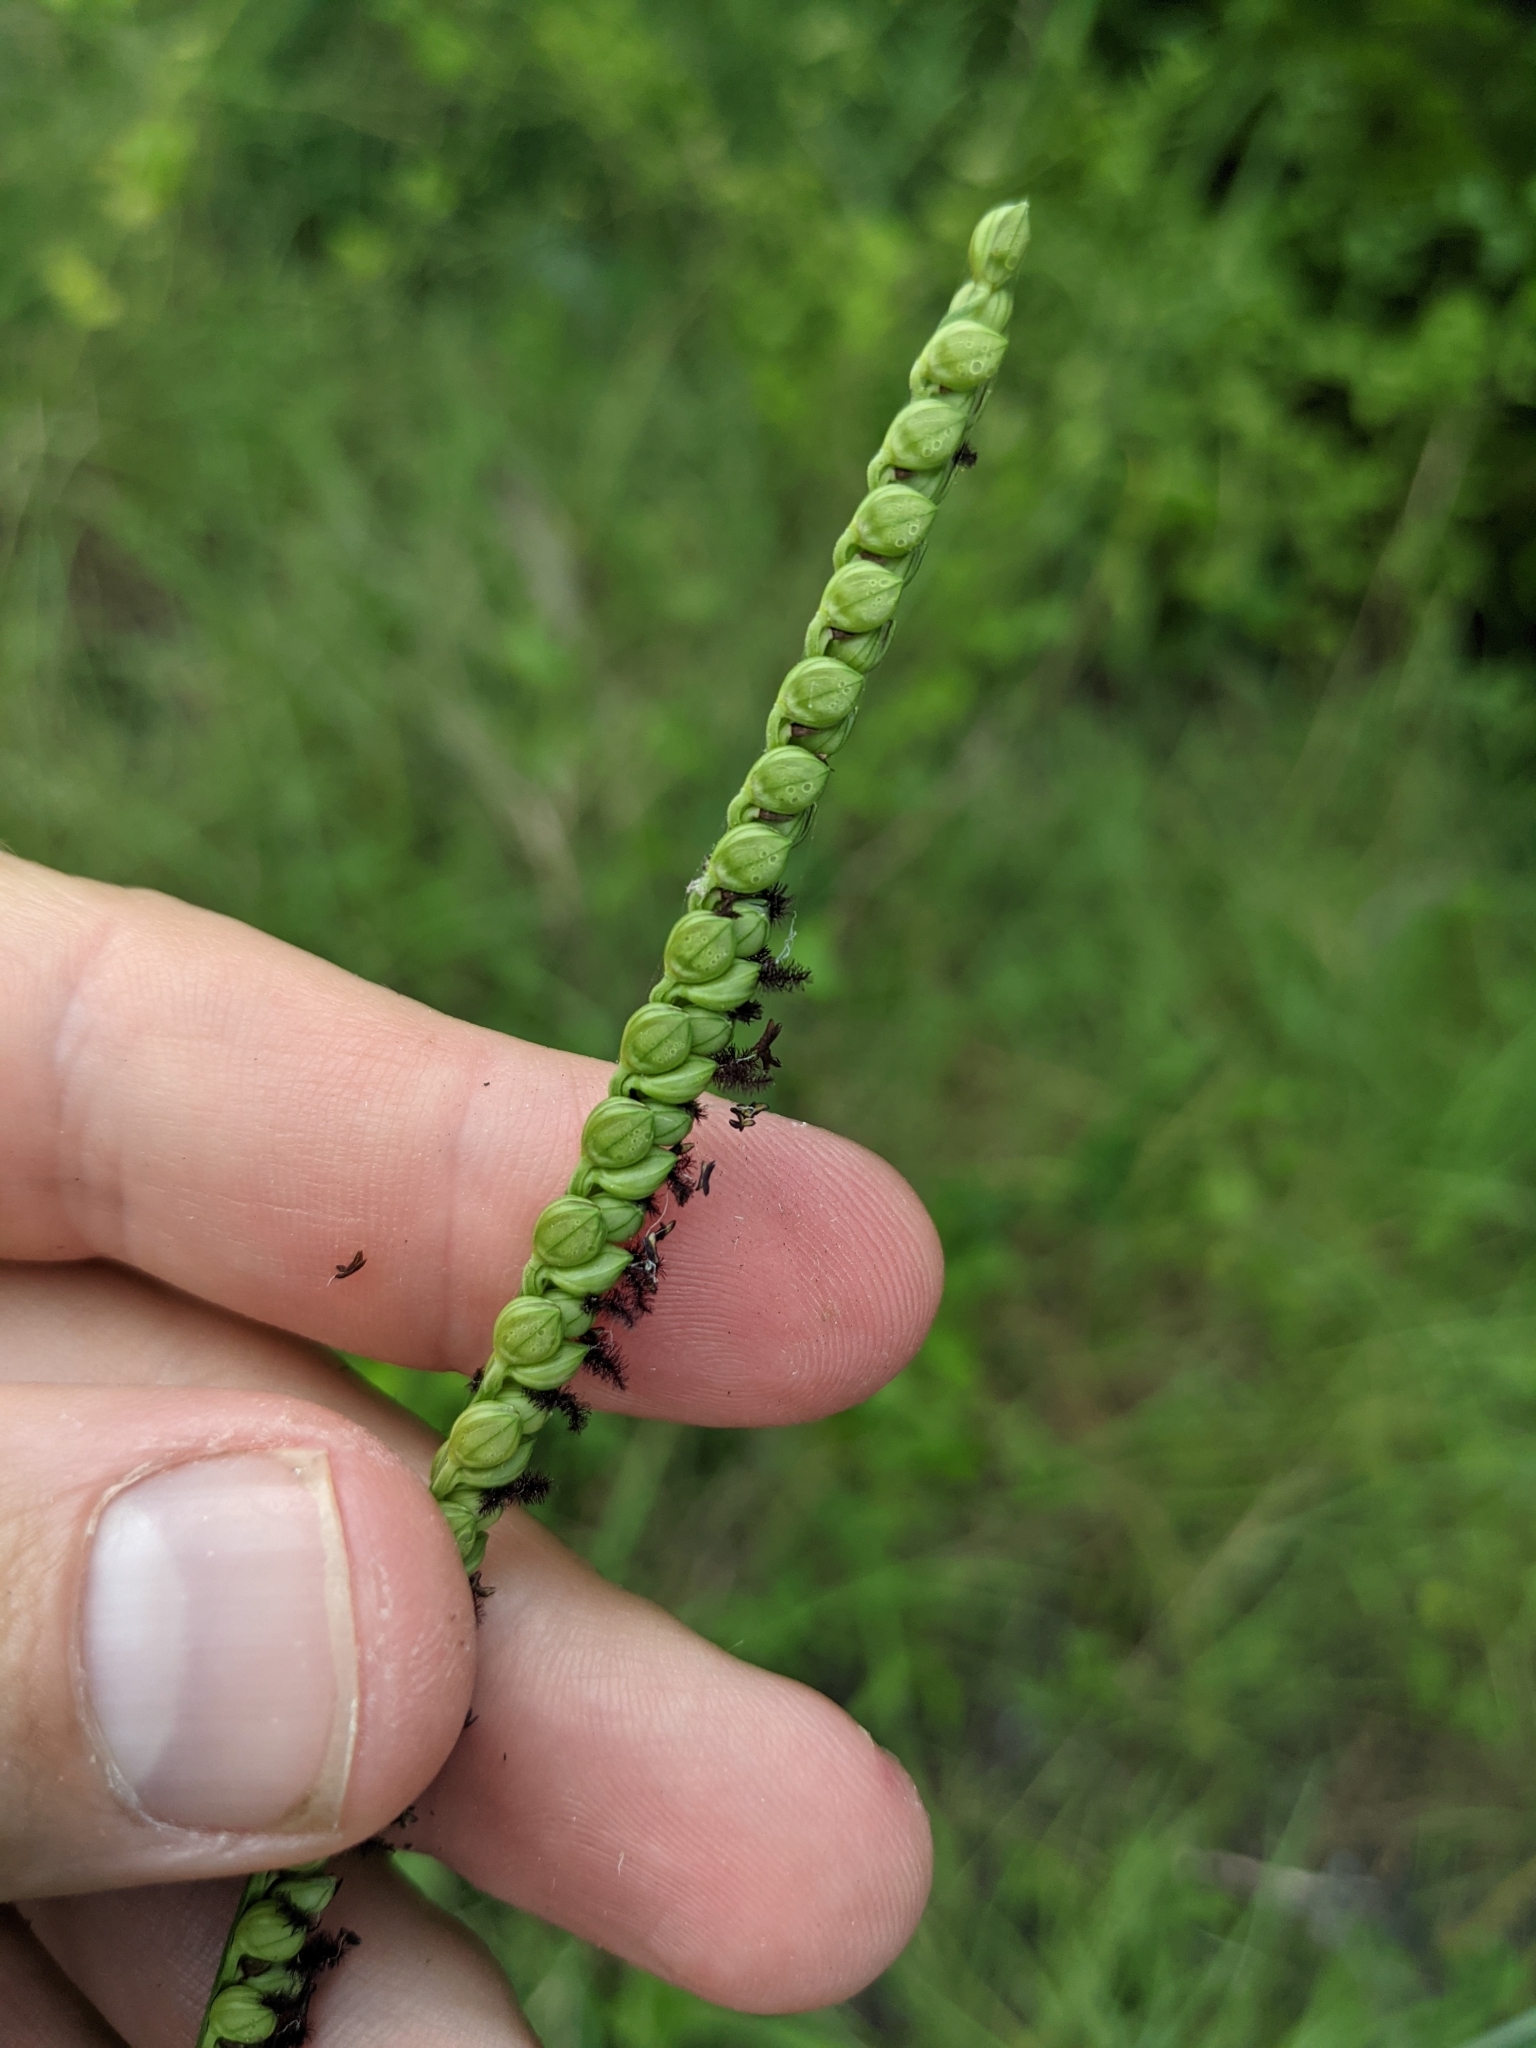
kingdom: Plantae
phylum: Tracheophyta
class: Liliopsida
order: Poales
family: Poaceae
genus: Paspalum
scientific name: Paspalum floridanum
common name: Florida paspalum
